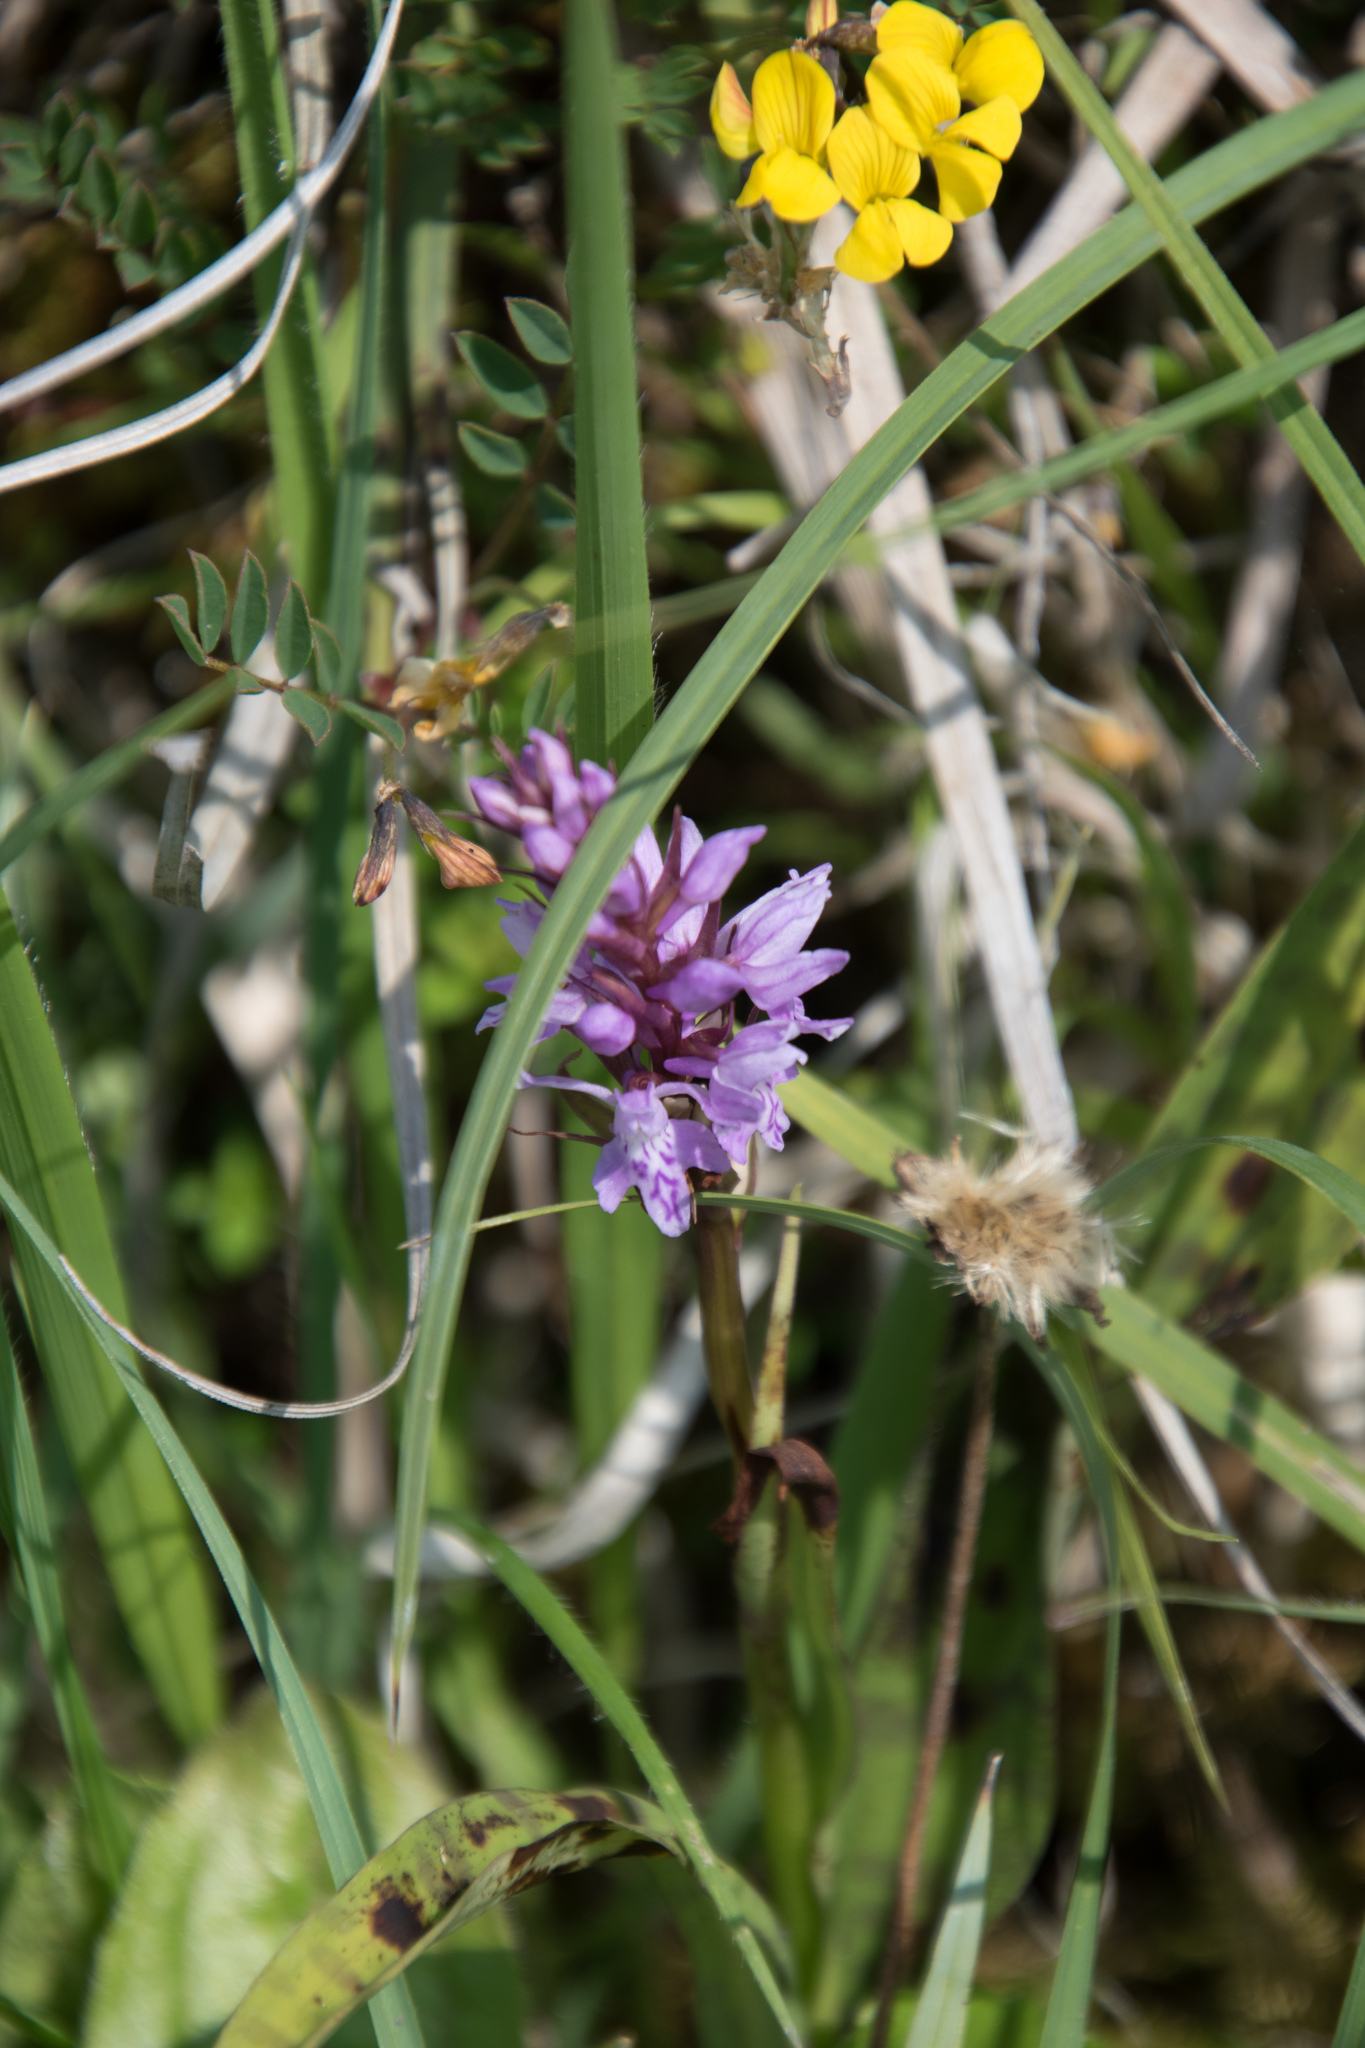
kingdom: Plantae
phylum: Tracheophyta
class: Liliopsida
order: Asparagales
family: Orchidaceae
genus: Dactylorhiza
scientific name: Dactylorhiza maculata
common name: Heath spotted-orchid
